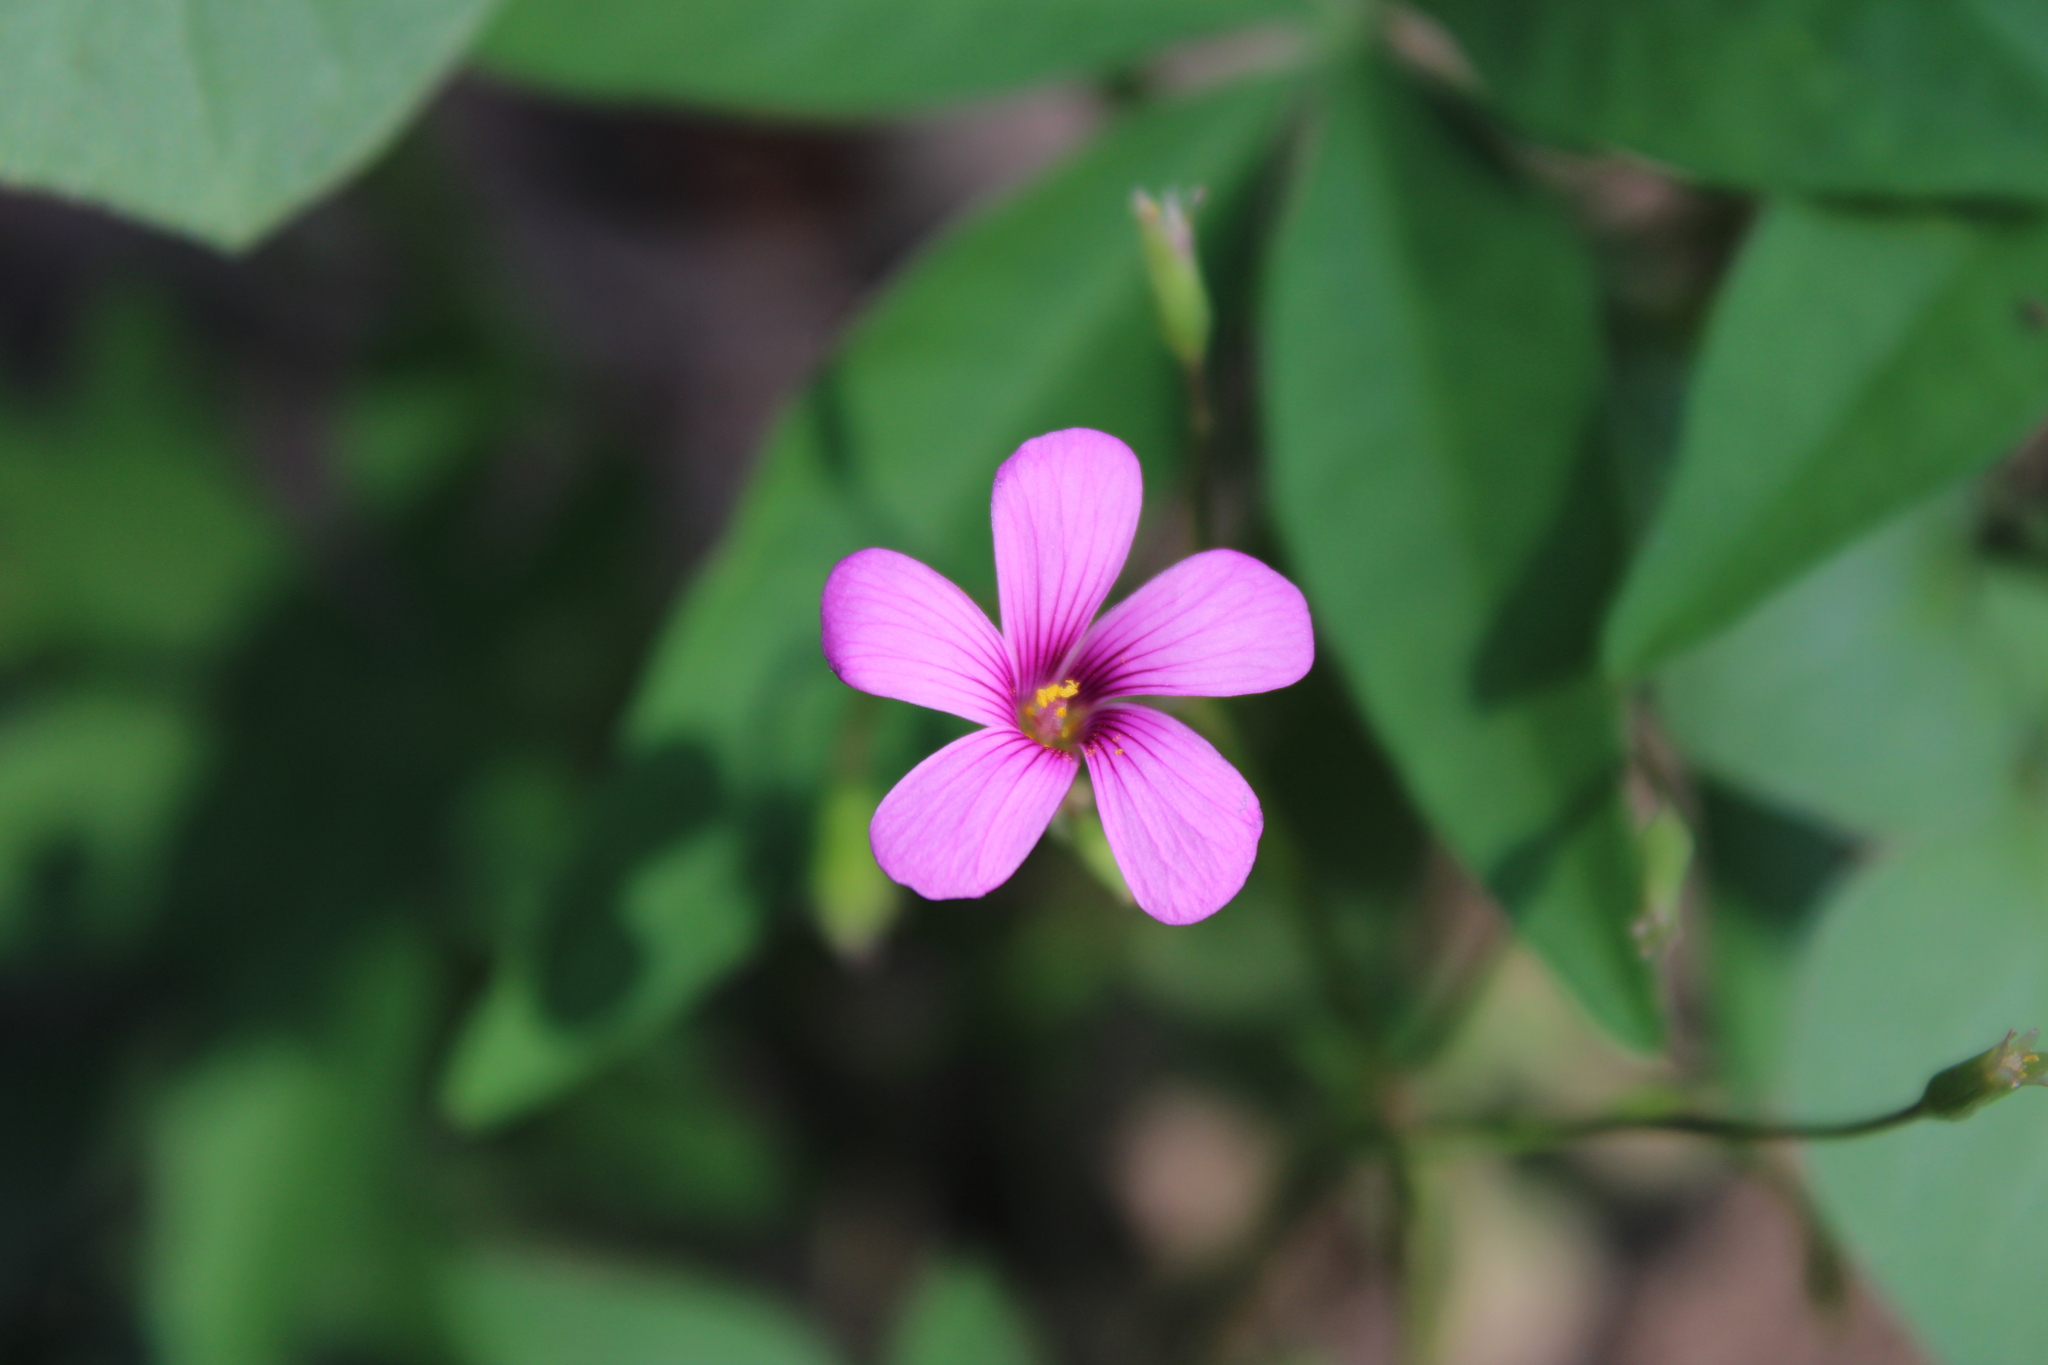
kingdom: Plantae
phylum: Tracheophyta
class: Magnoliopsida
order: Oxalidales
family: Oxalidaceae
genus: Oxalis
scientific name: Oxalis articulata
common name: Pink-sorrel
